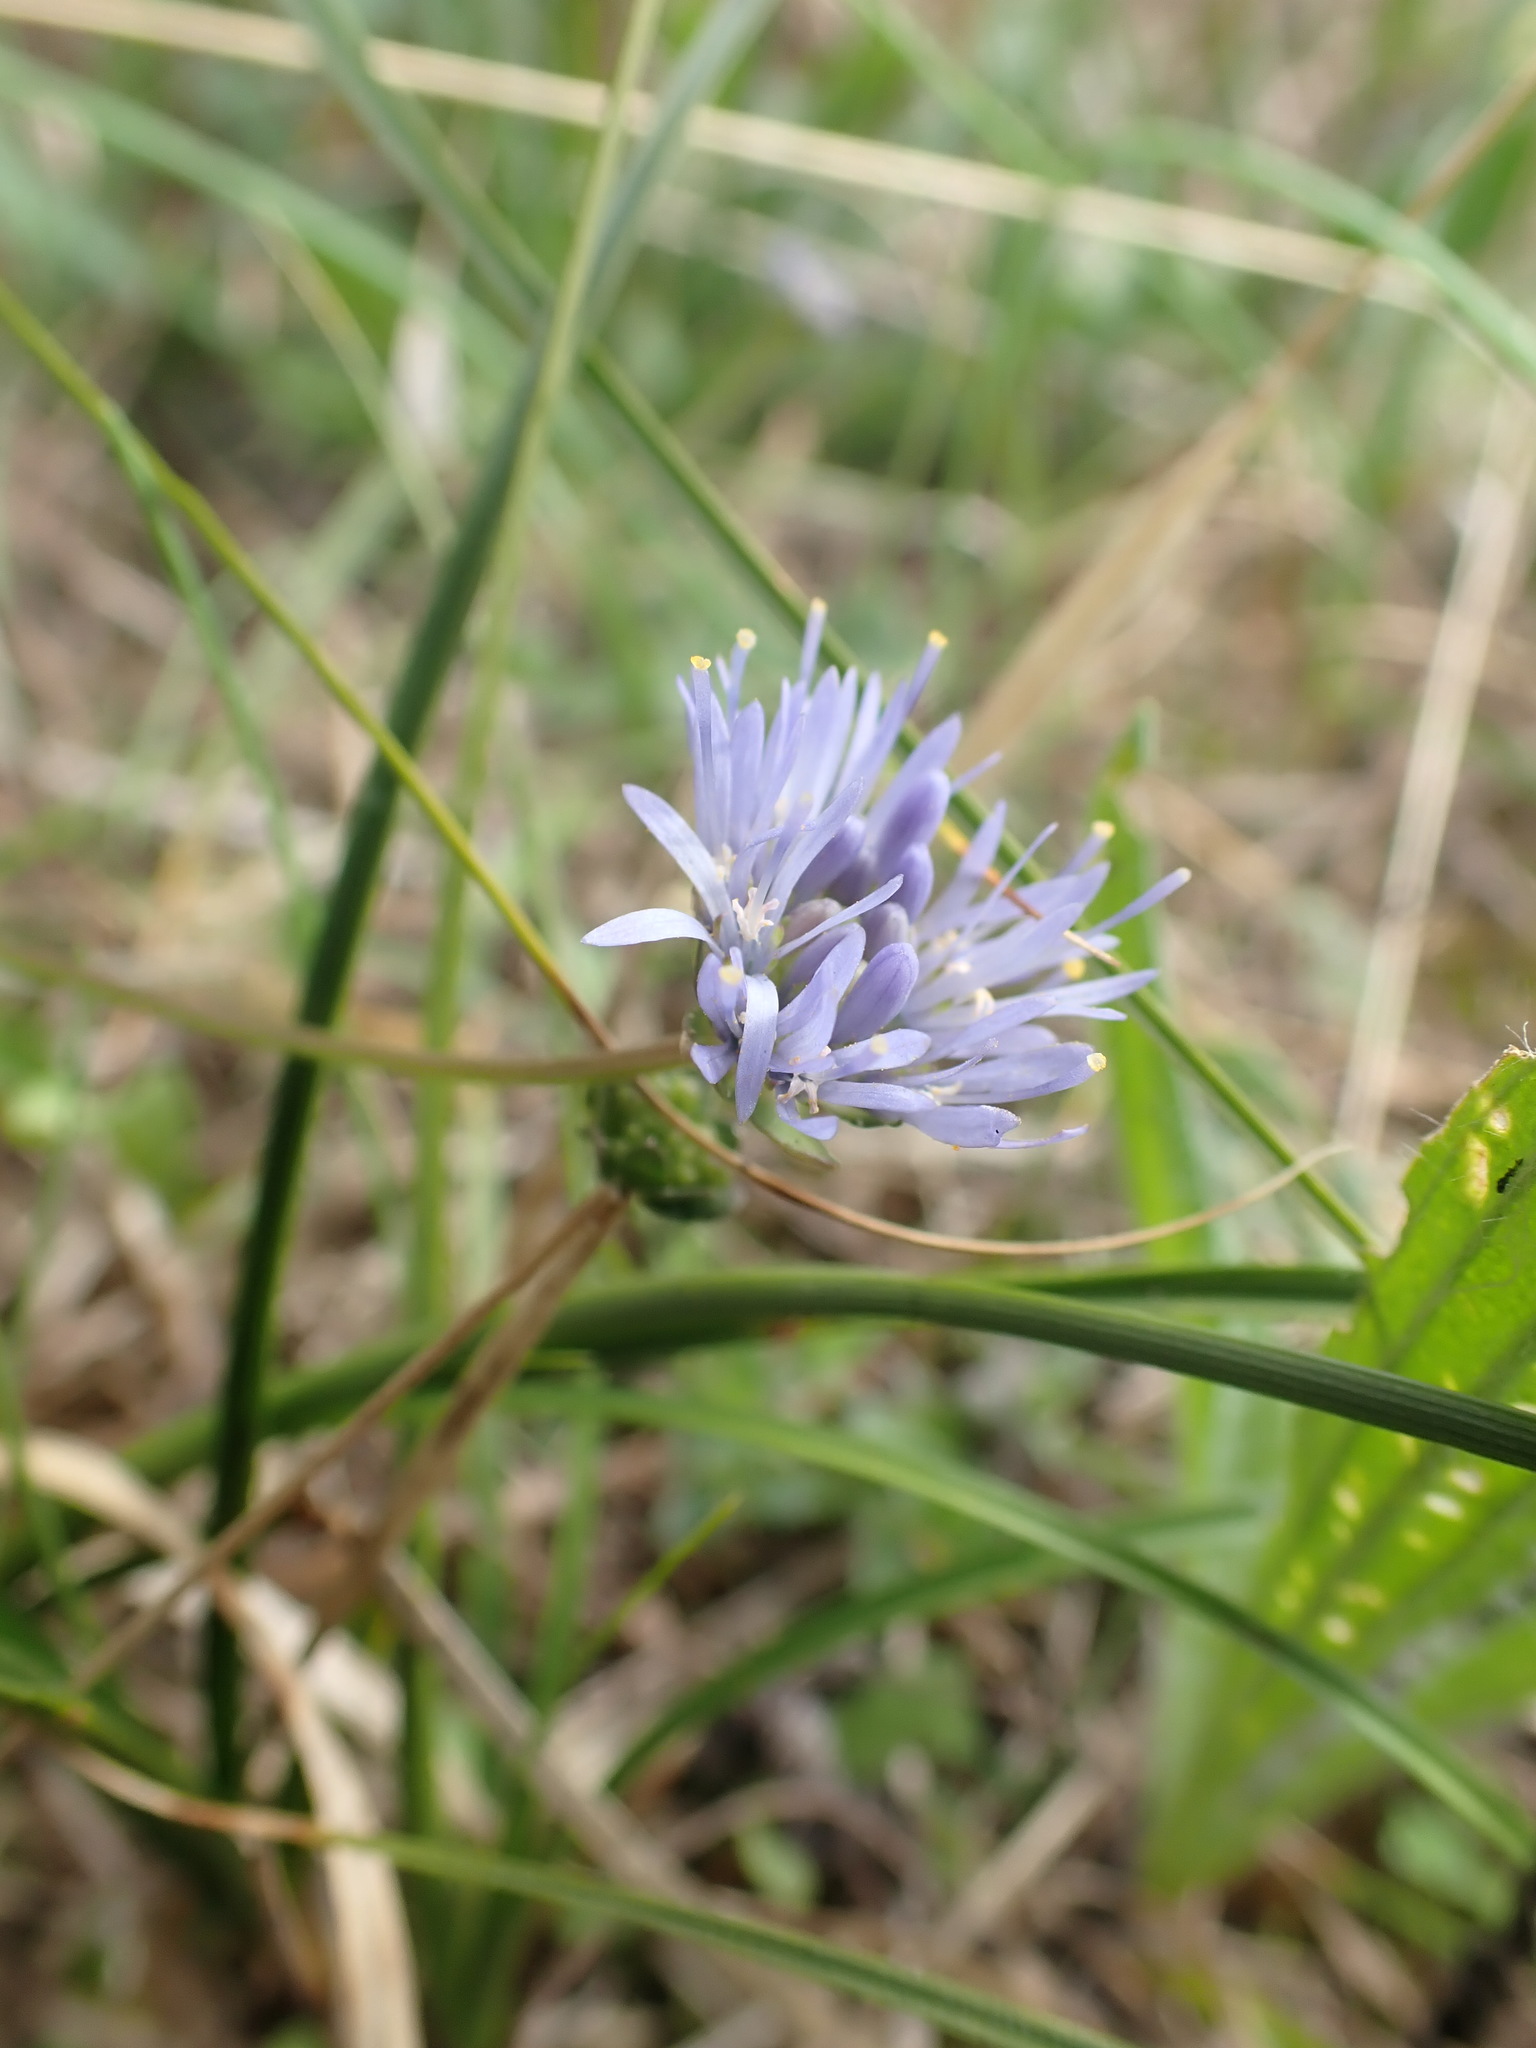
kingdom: Plantae
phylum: Tracheophyta
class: Magnoliopsida
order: Asterales
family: Campanulaceae
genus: Jasione
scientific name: Jasione montana
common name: Sheep's-bit
